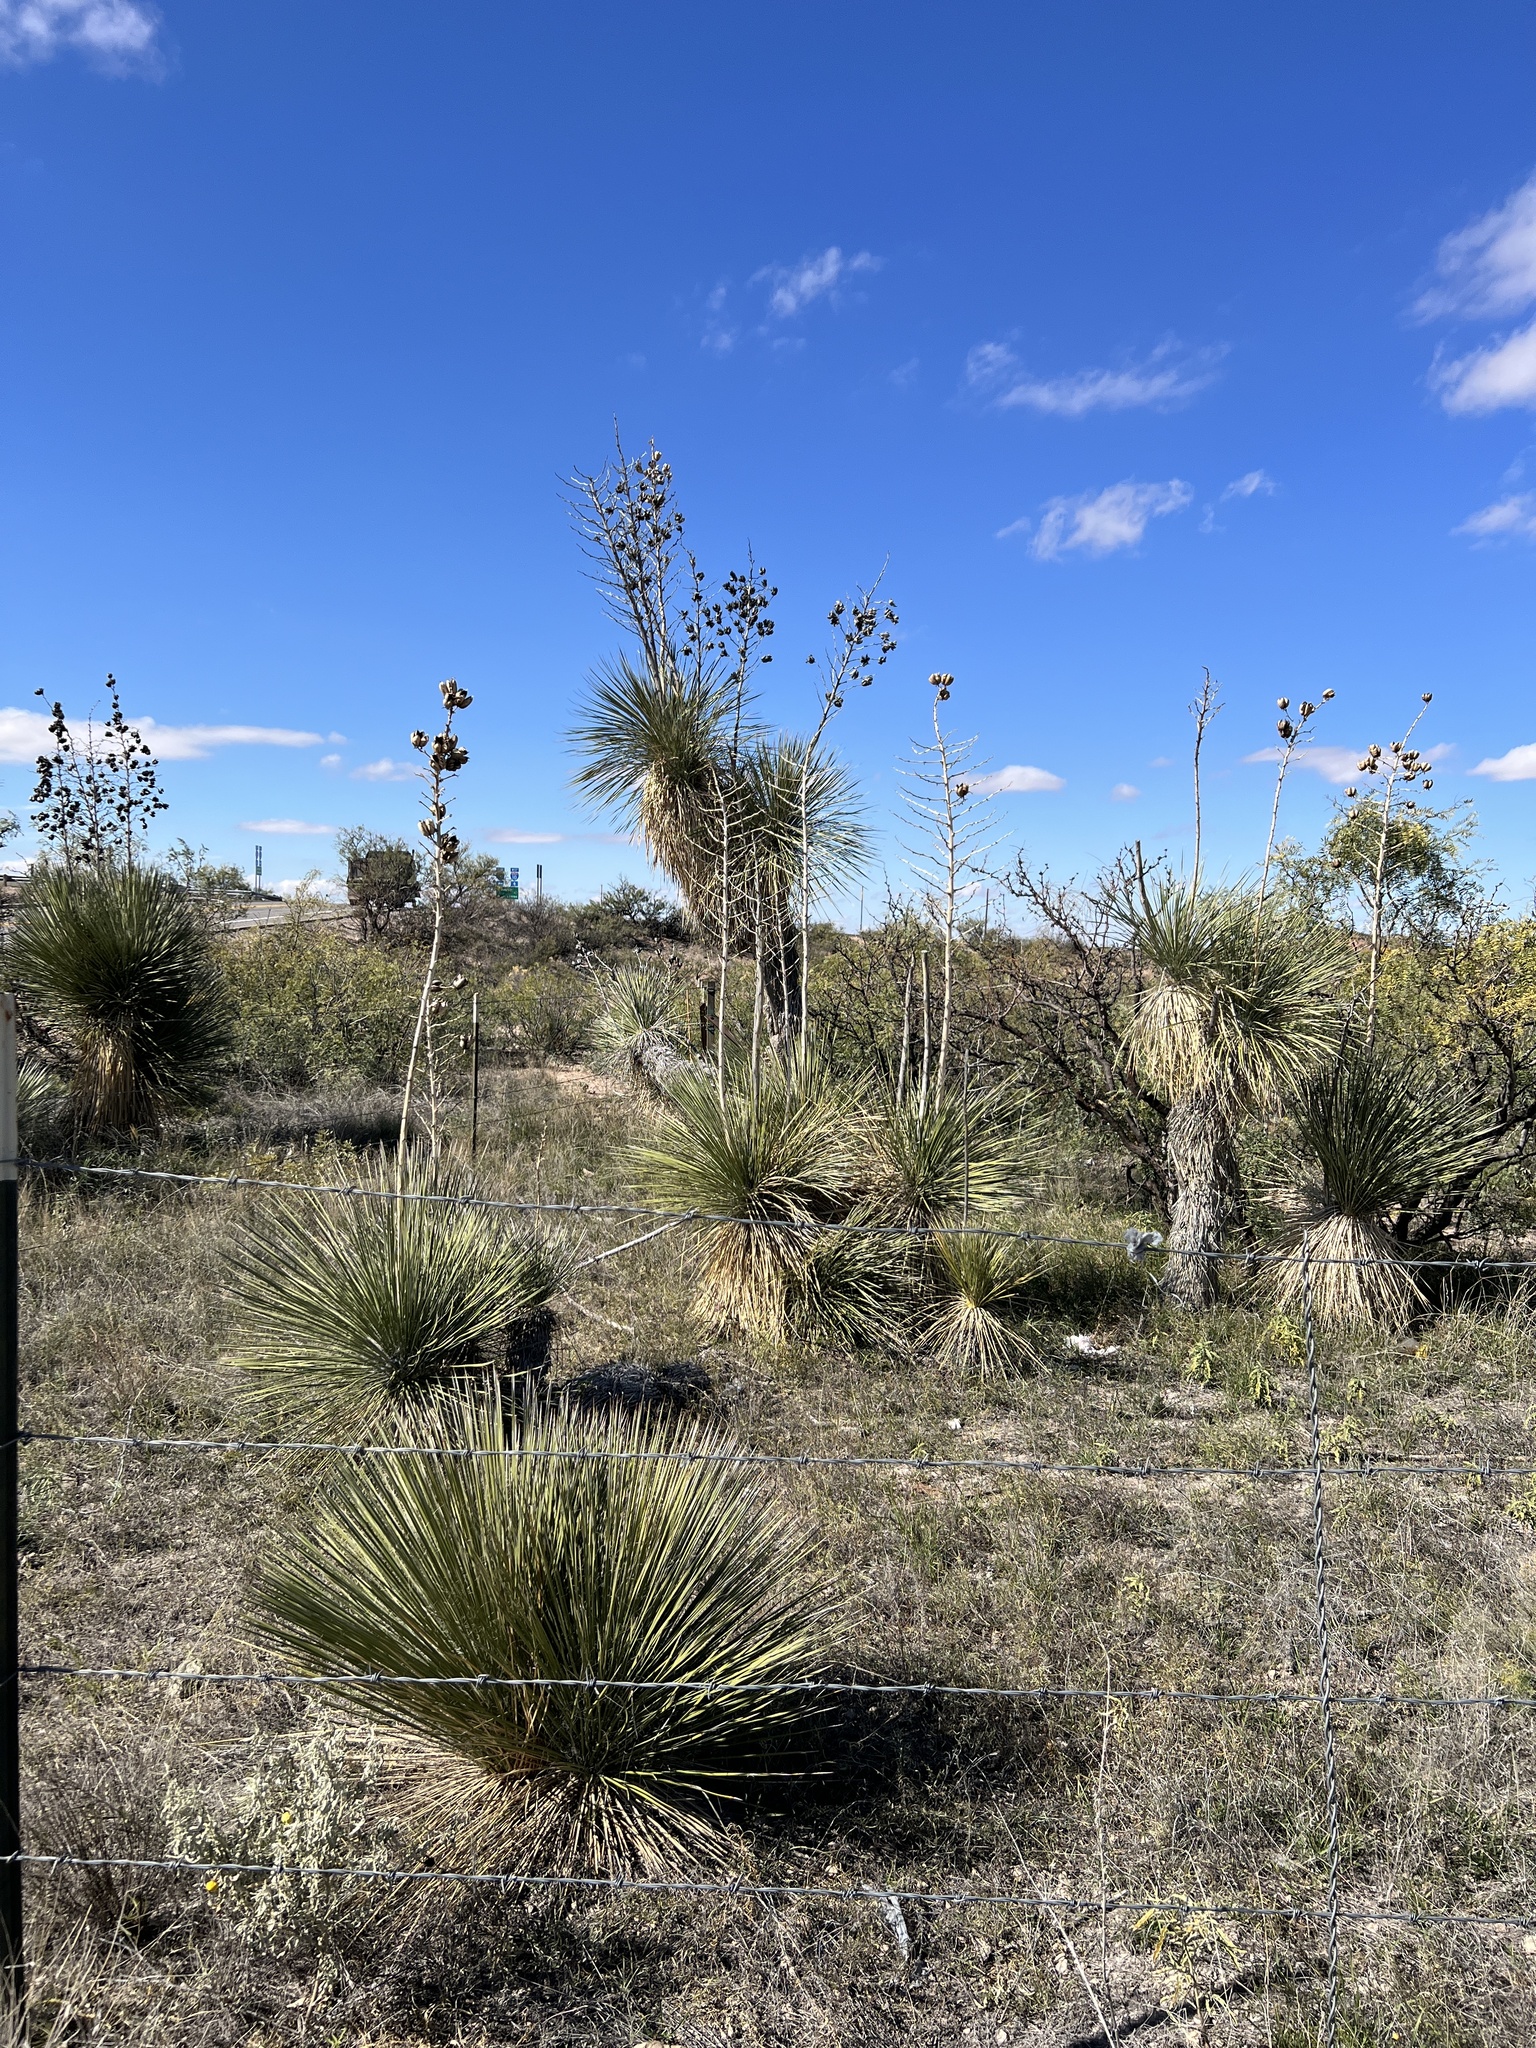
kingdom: Plantae
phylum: Tracheophyta
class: Liliopsida
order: Asparagales
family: Asparagaceae
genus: Yucca
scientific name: Yucca elata
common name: Palmella
